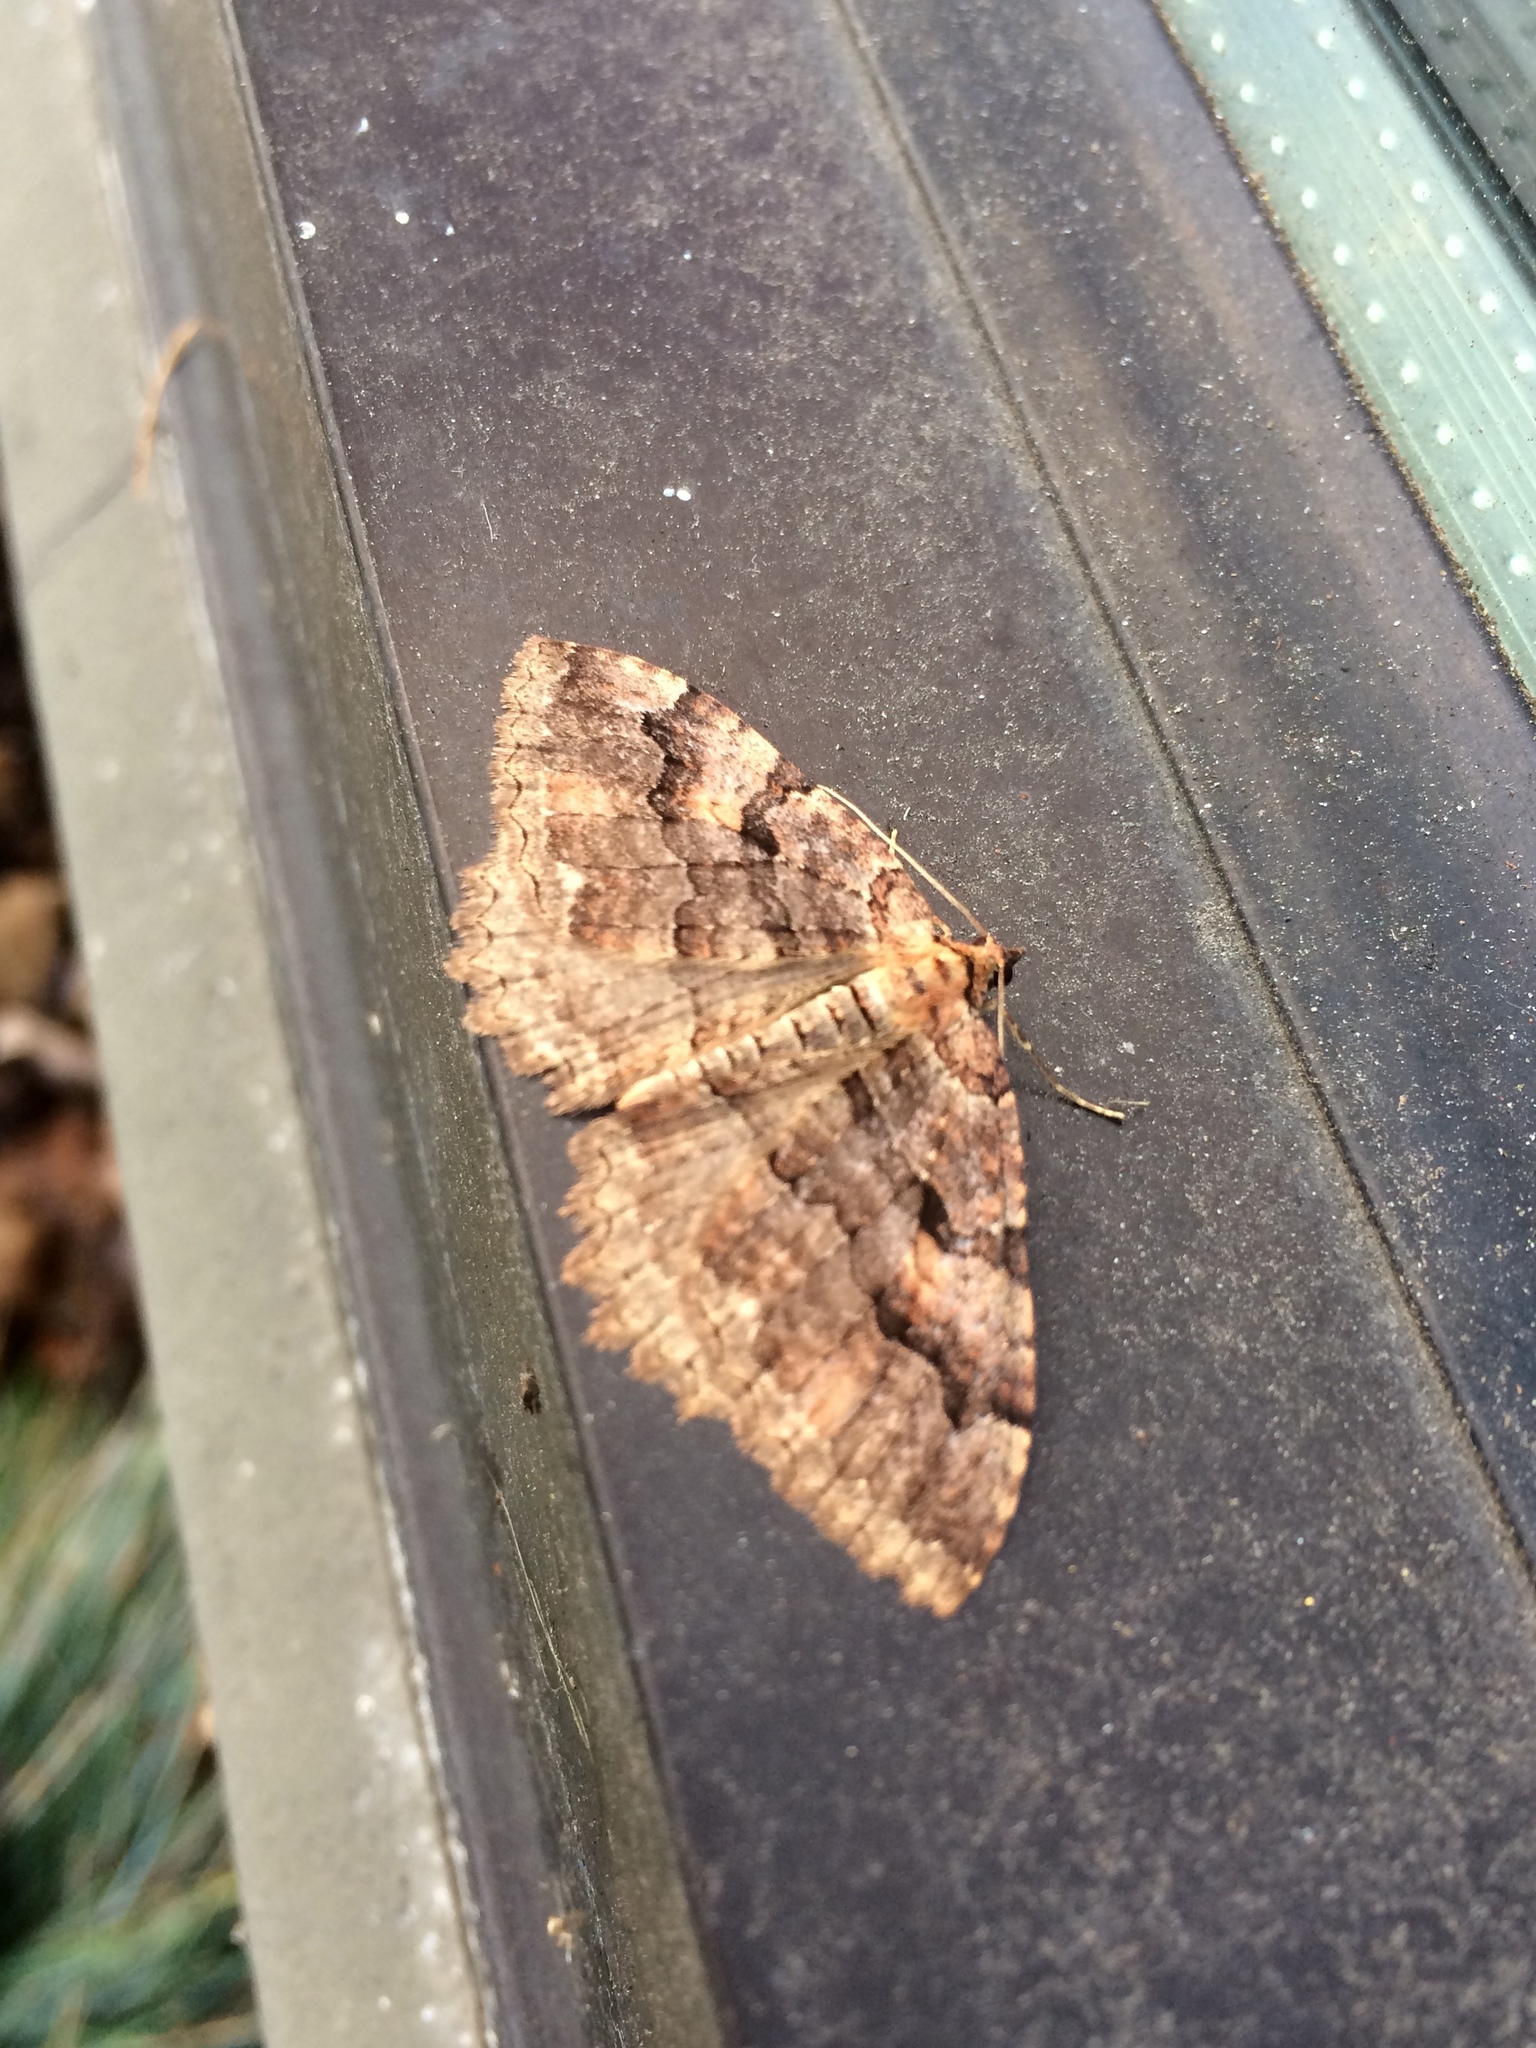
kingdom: Animalia
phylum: Arthropoda
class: Insecta
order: Lepidoptera
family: Geometridae
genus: Triphosa
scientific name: Triphosa haesitata
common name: Tissue moth
